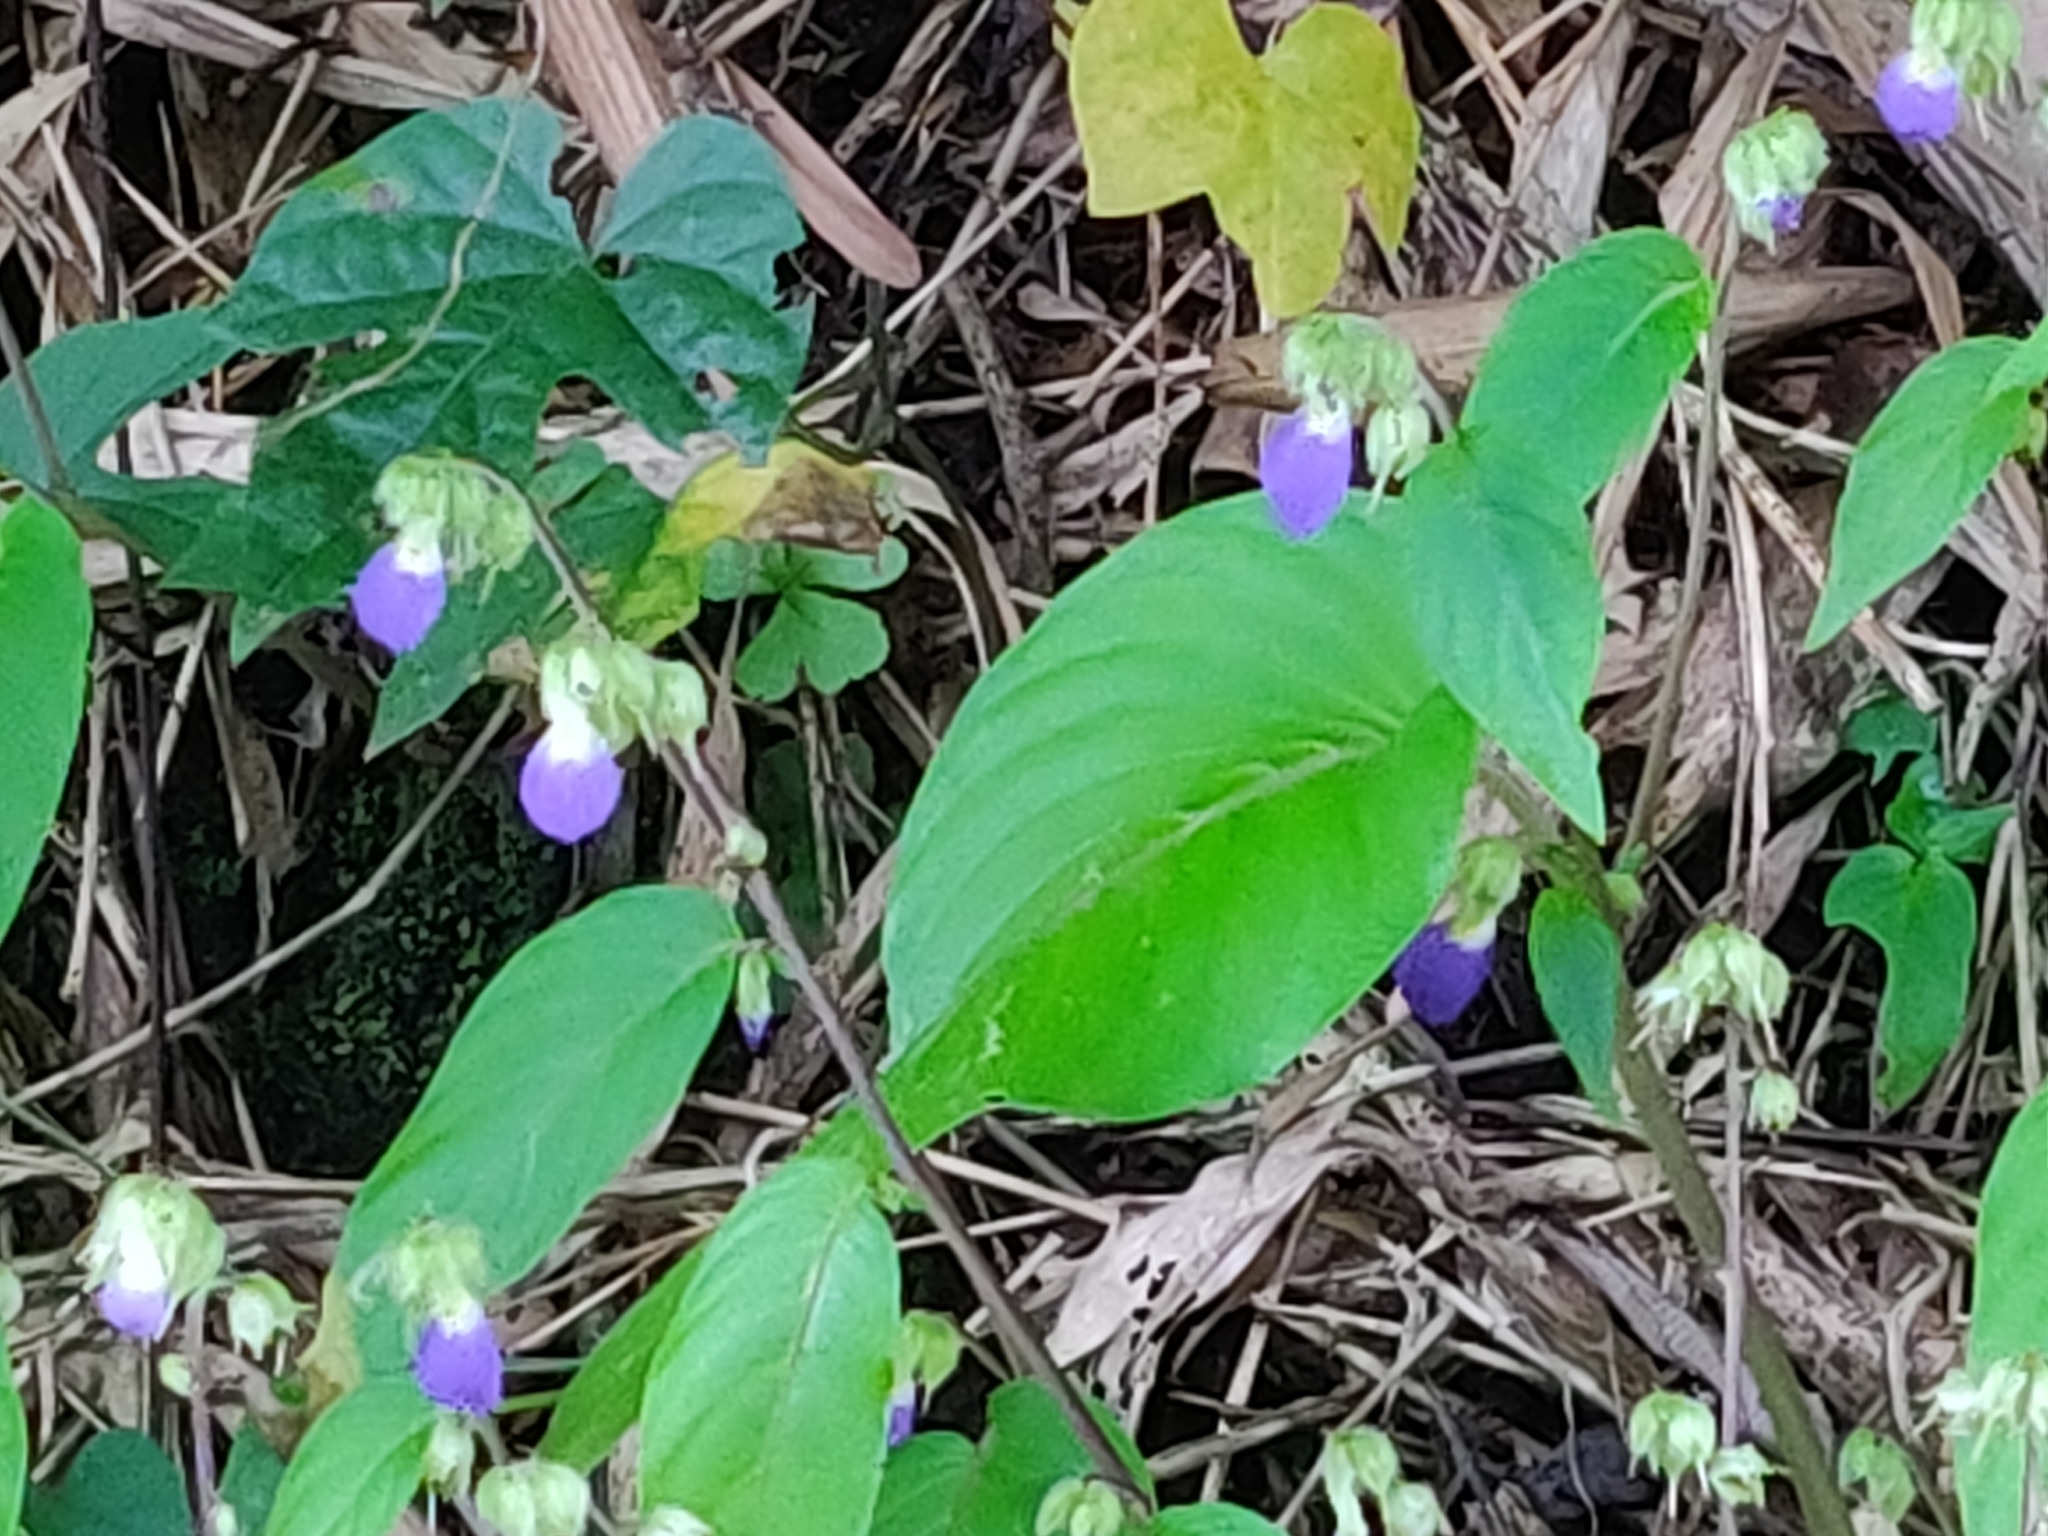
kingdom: Plantae
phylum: Tracheophyta
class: Magnoliopsida
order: Lamiales
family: Gesneriaceae
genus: Rhynchoglossum
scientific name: Rhynchoglossum notonianum
